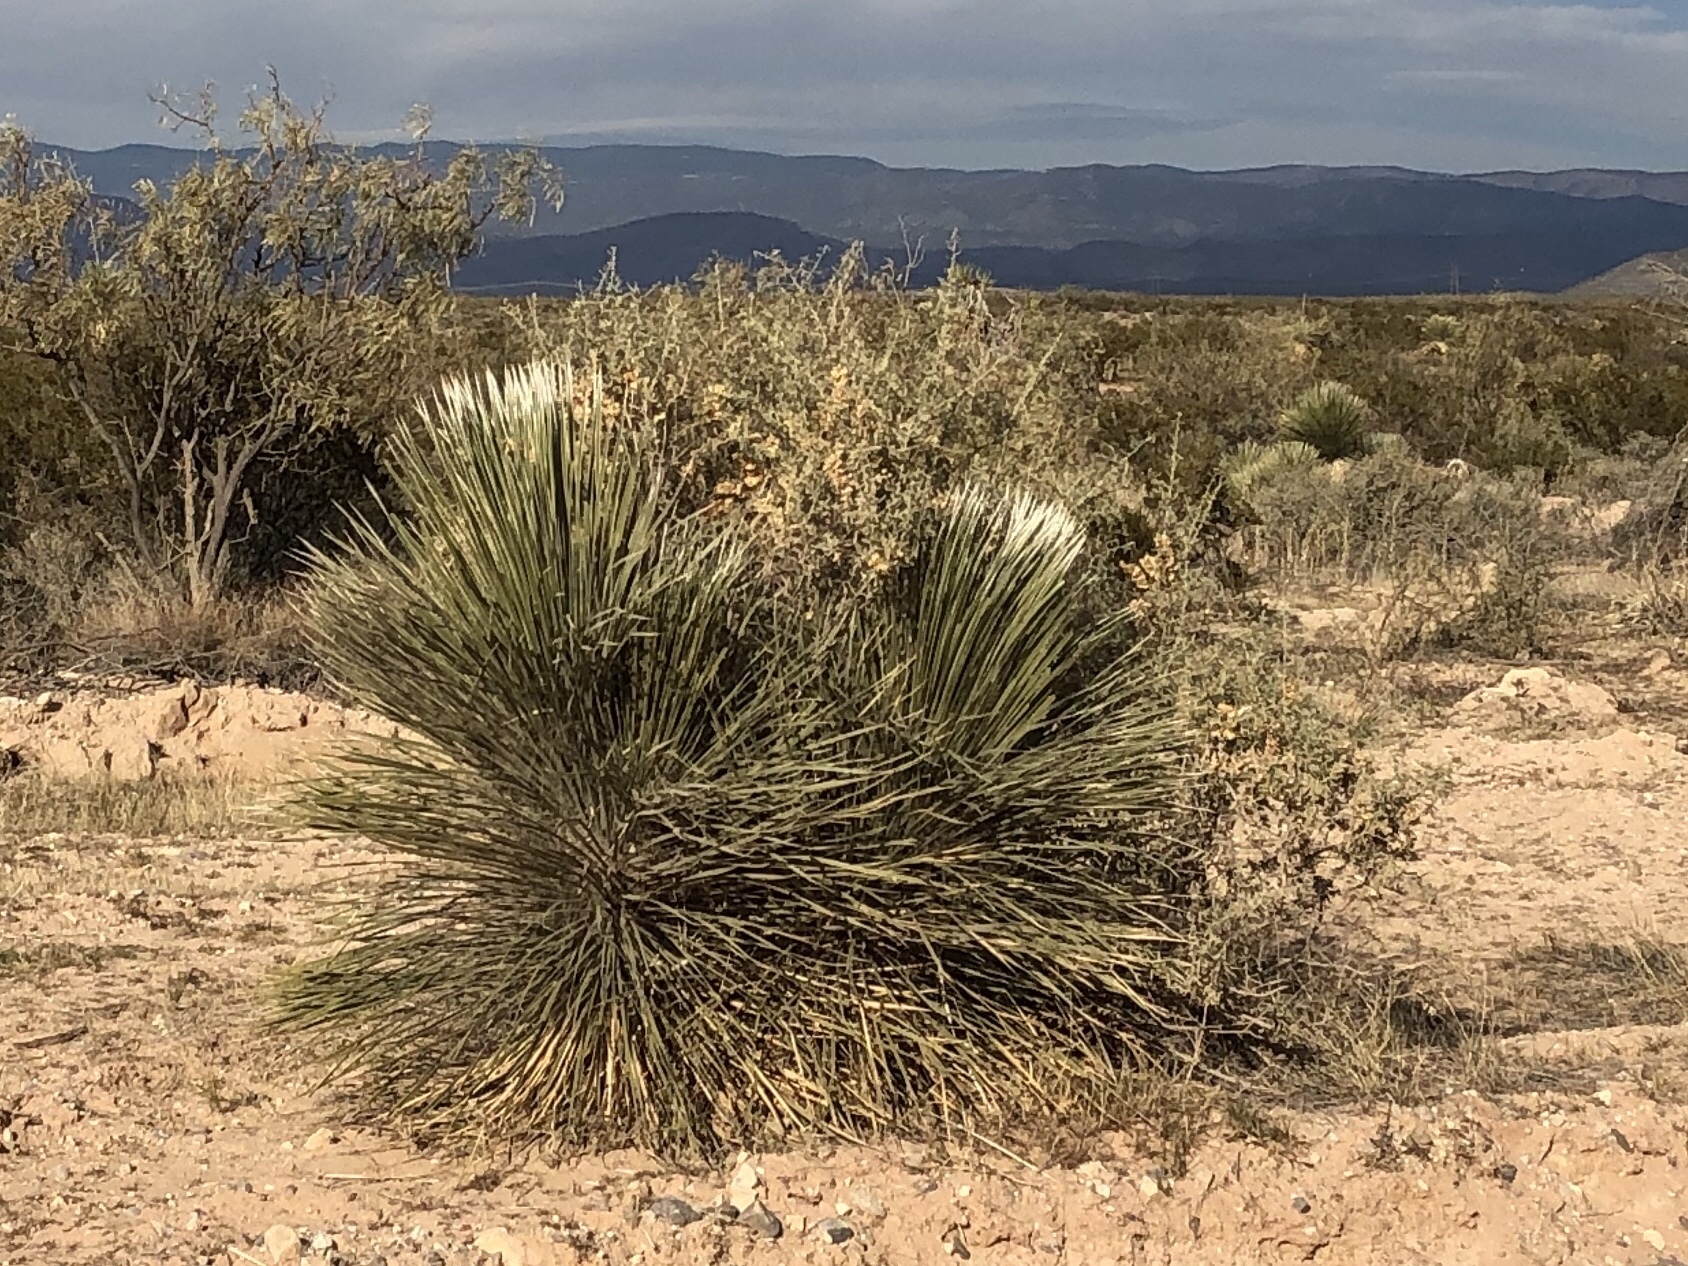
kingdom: Plantae
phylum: Tracheophyta
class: Liliopsida
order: Asparagales
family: Asparagaceae
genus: Yucca
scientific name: Yucca elata
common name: Palmella
